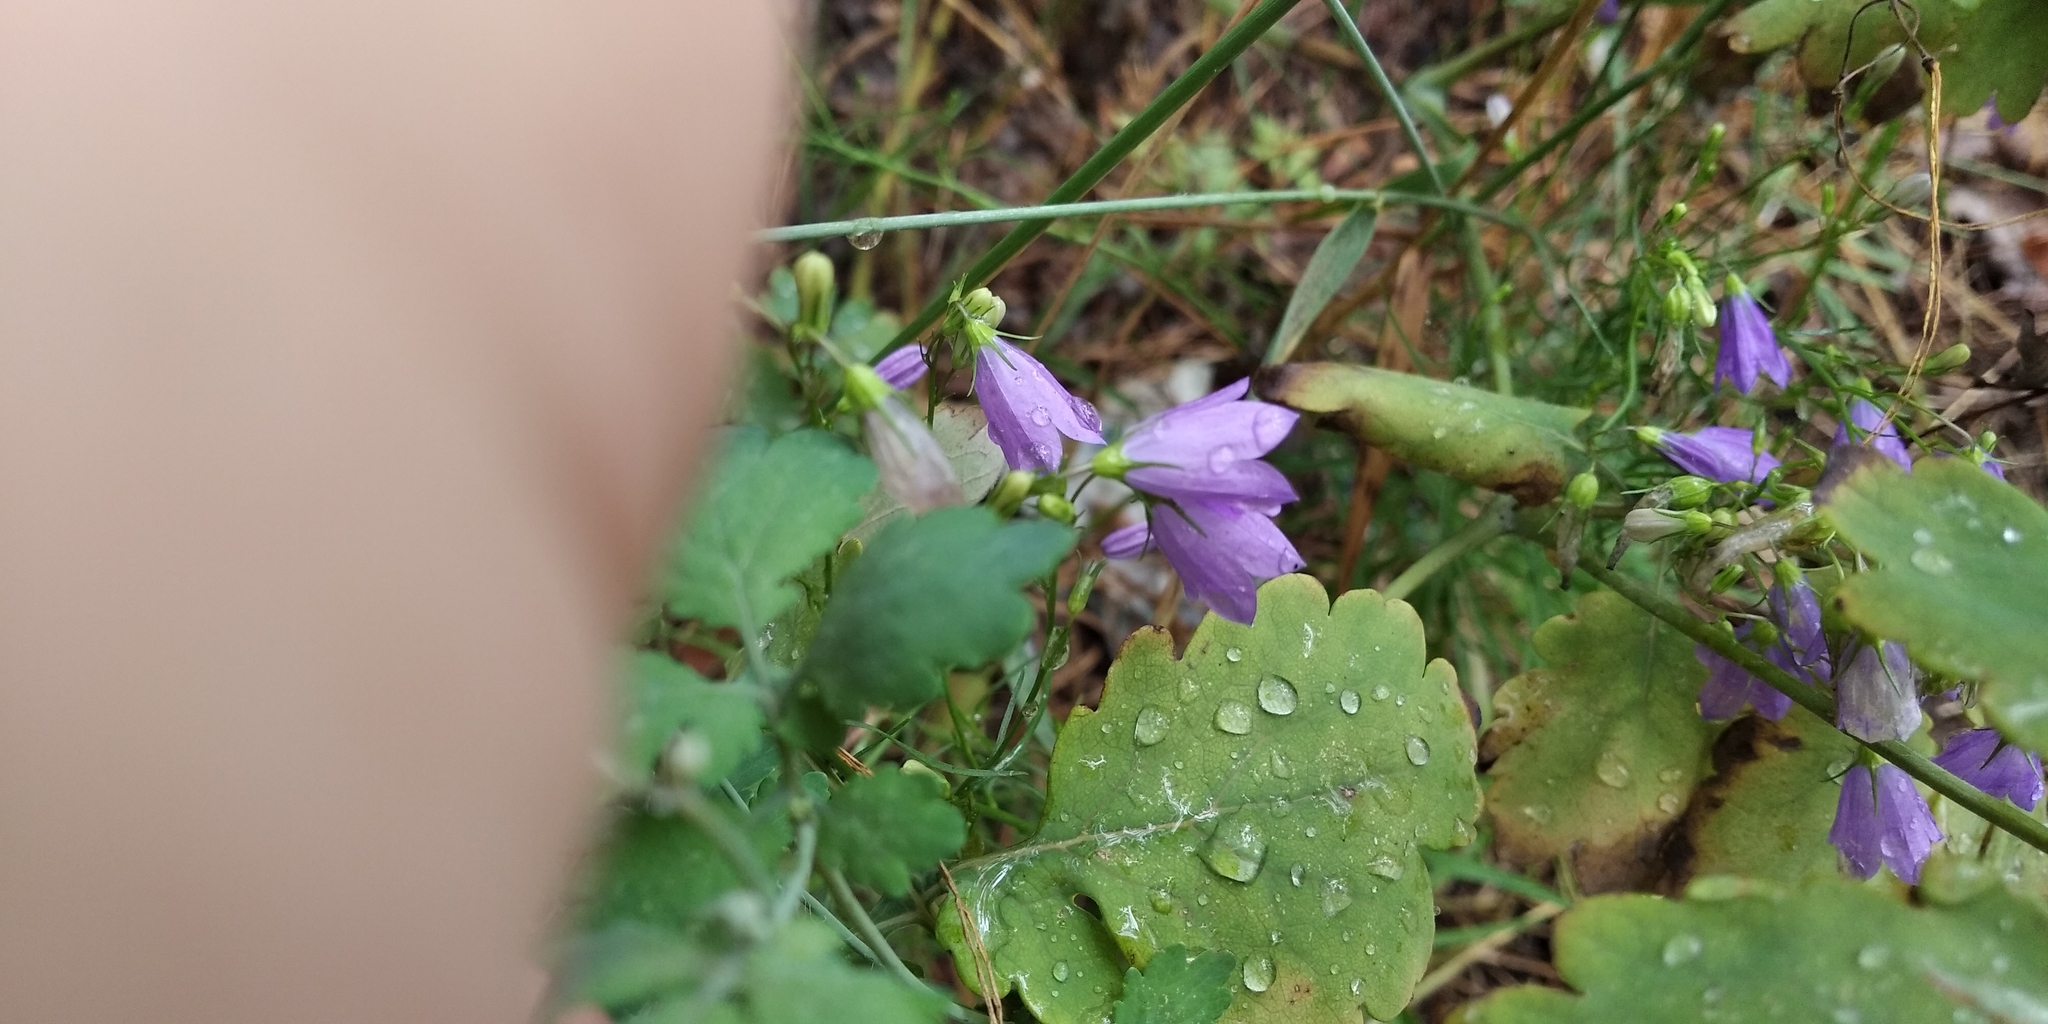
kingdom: Plantae
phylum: Tracheophyta
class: Magnoliopsida
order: Asterales
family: Campanulaceae
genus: Campanula
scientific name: Campanula rotundifolia
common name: Harebell
